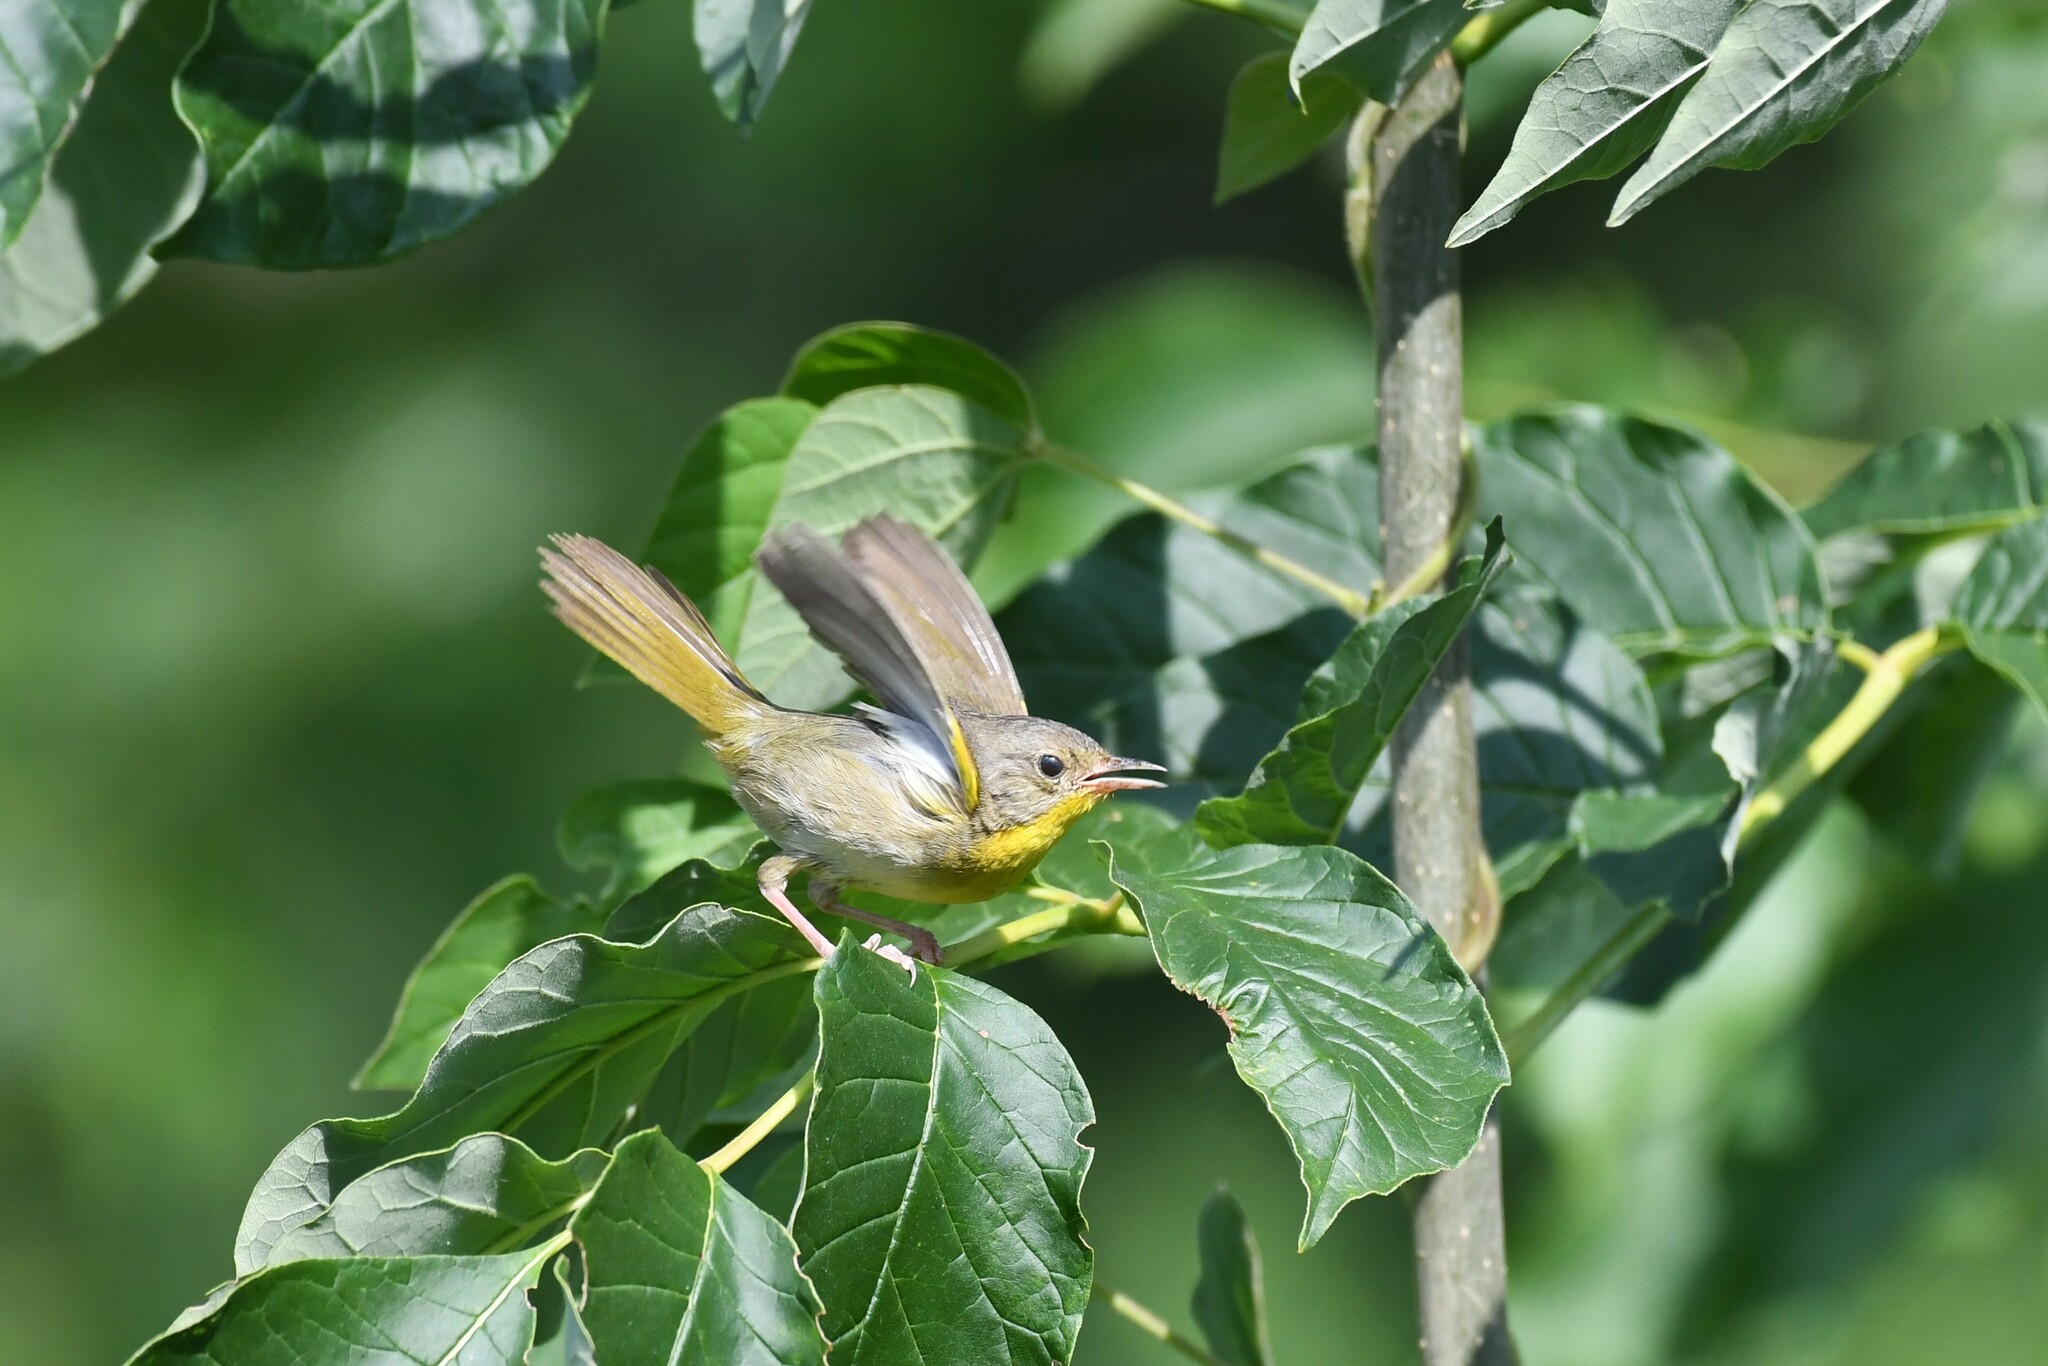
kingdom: Animalia
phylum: Chordata
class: Aves
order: Passeriformes
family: Parulidae
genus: Geothlypis
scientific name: Geothlypis trichas
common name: Common yellowthroat
